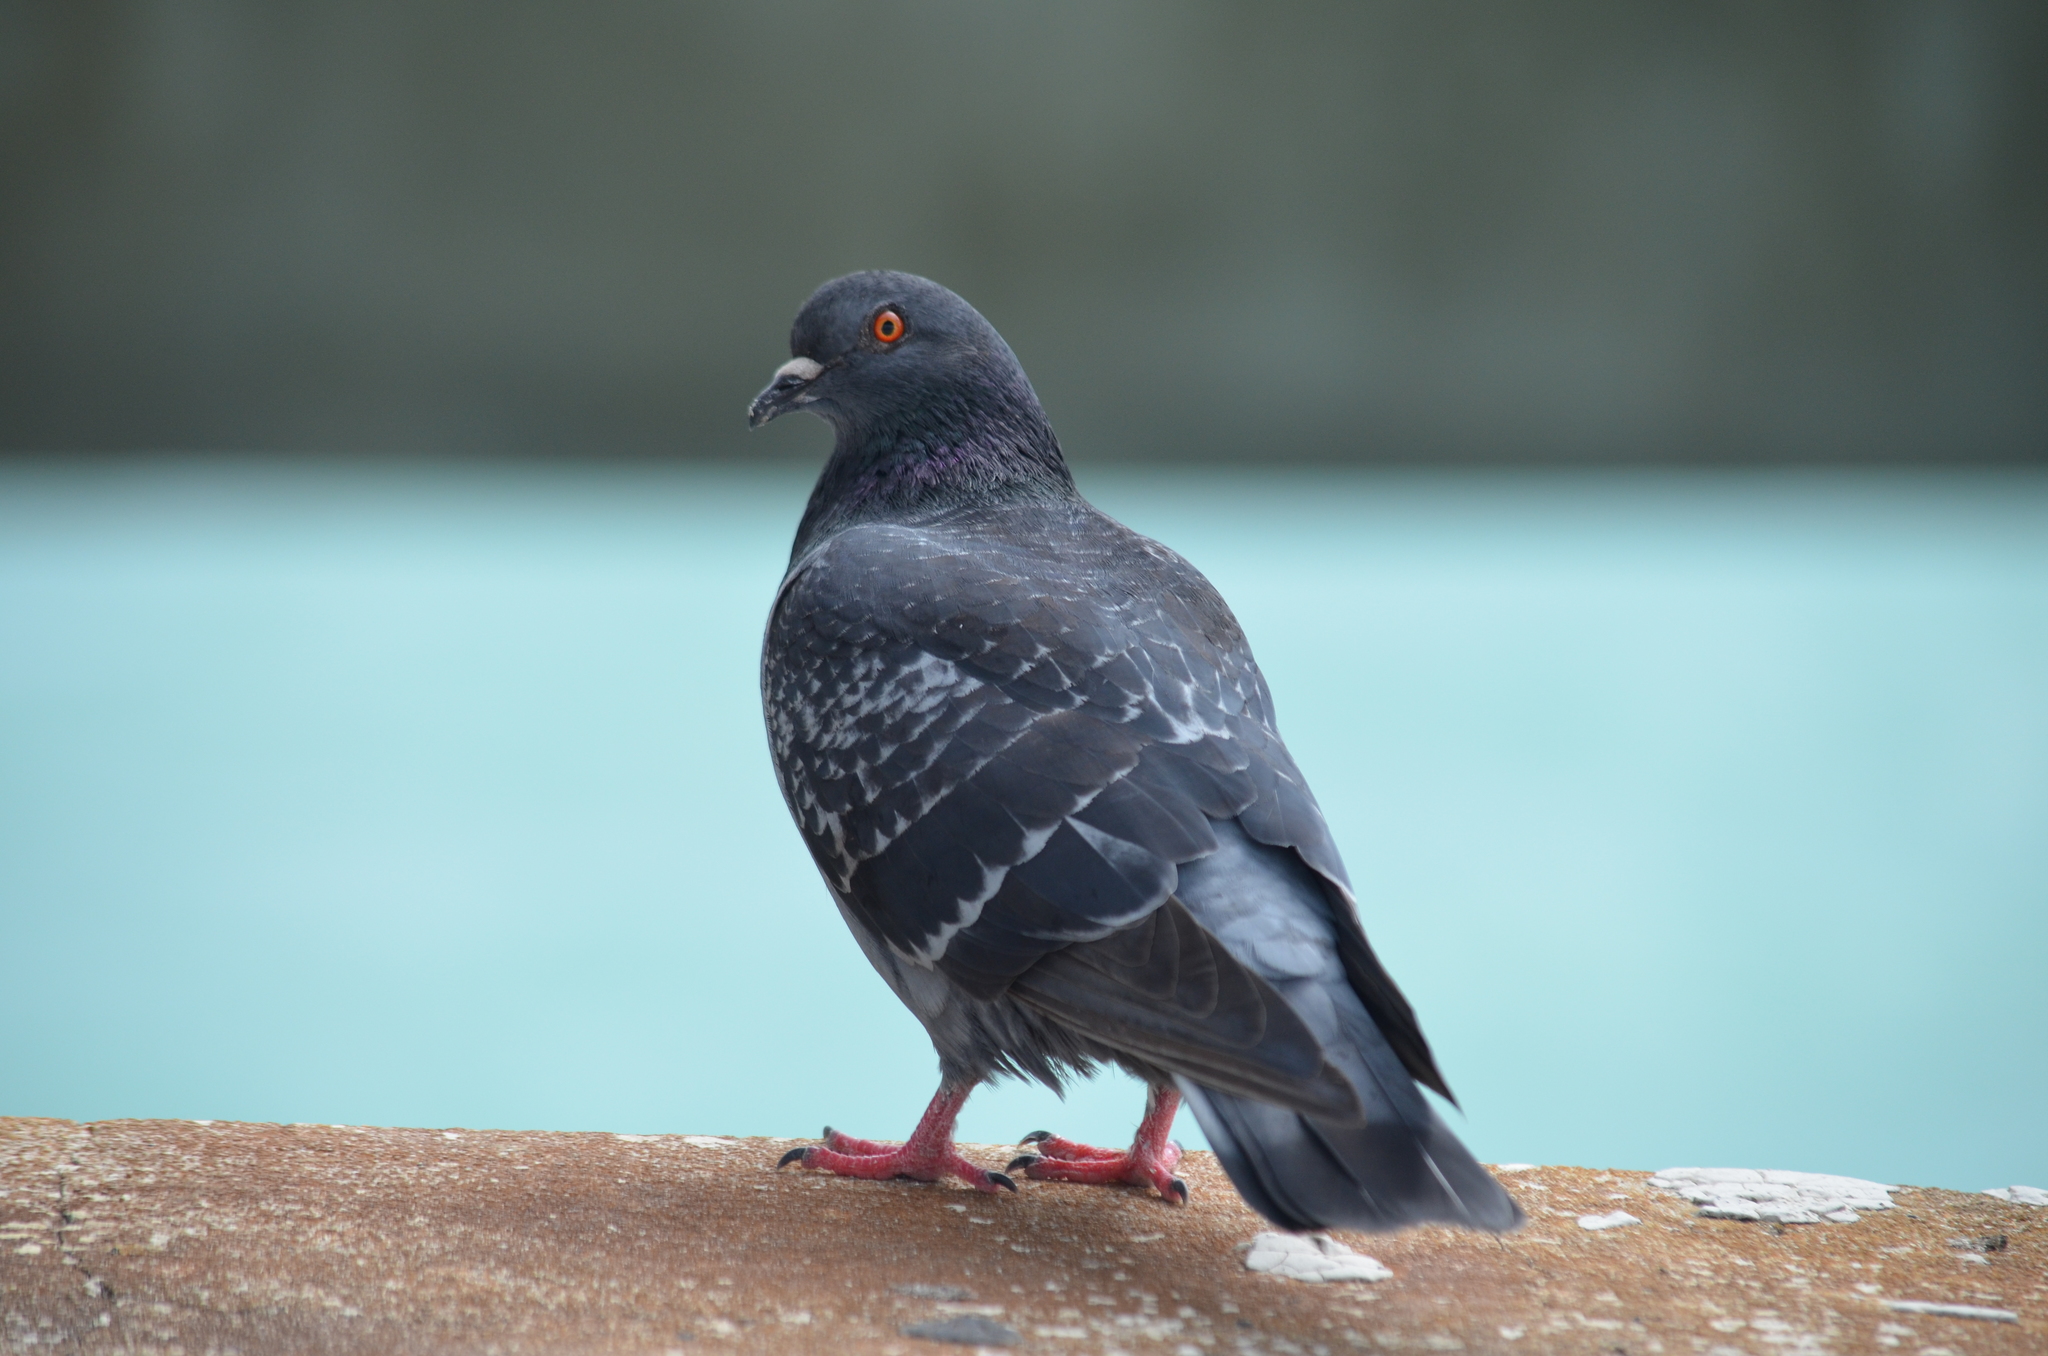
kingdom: Animalia
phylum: Chordata
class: Aves
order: Columbiformes
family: Columbidae
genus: Columba
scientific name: Columba livia
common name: Rock pigeon
